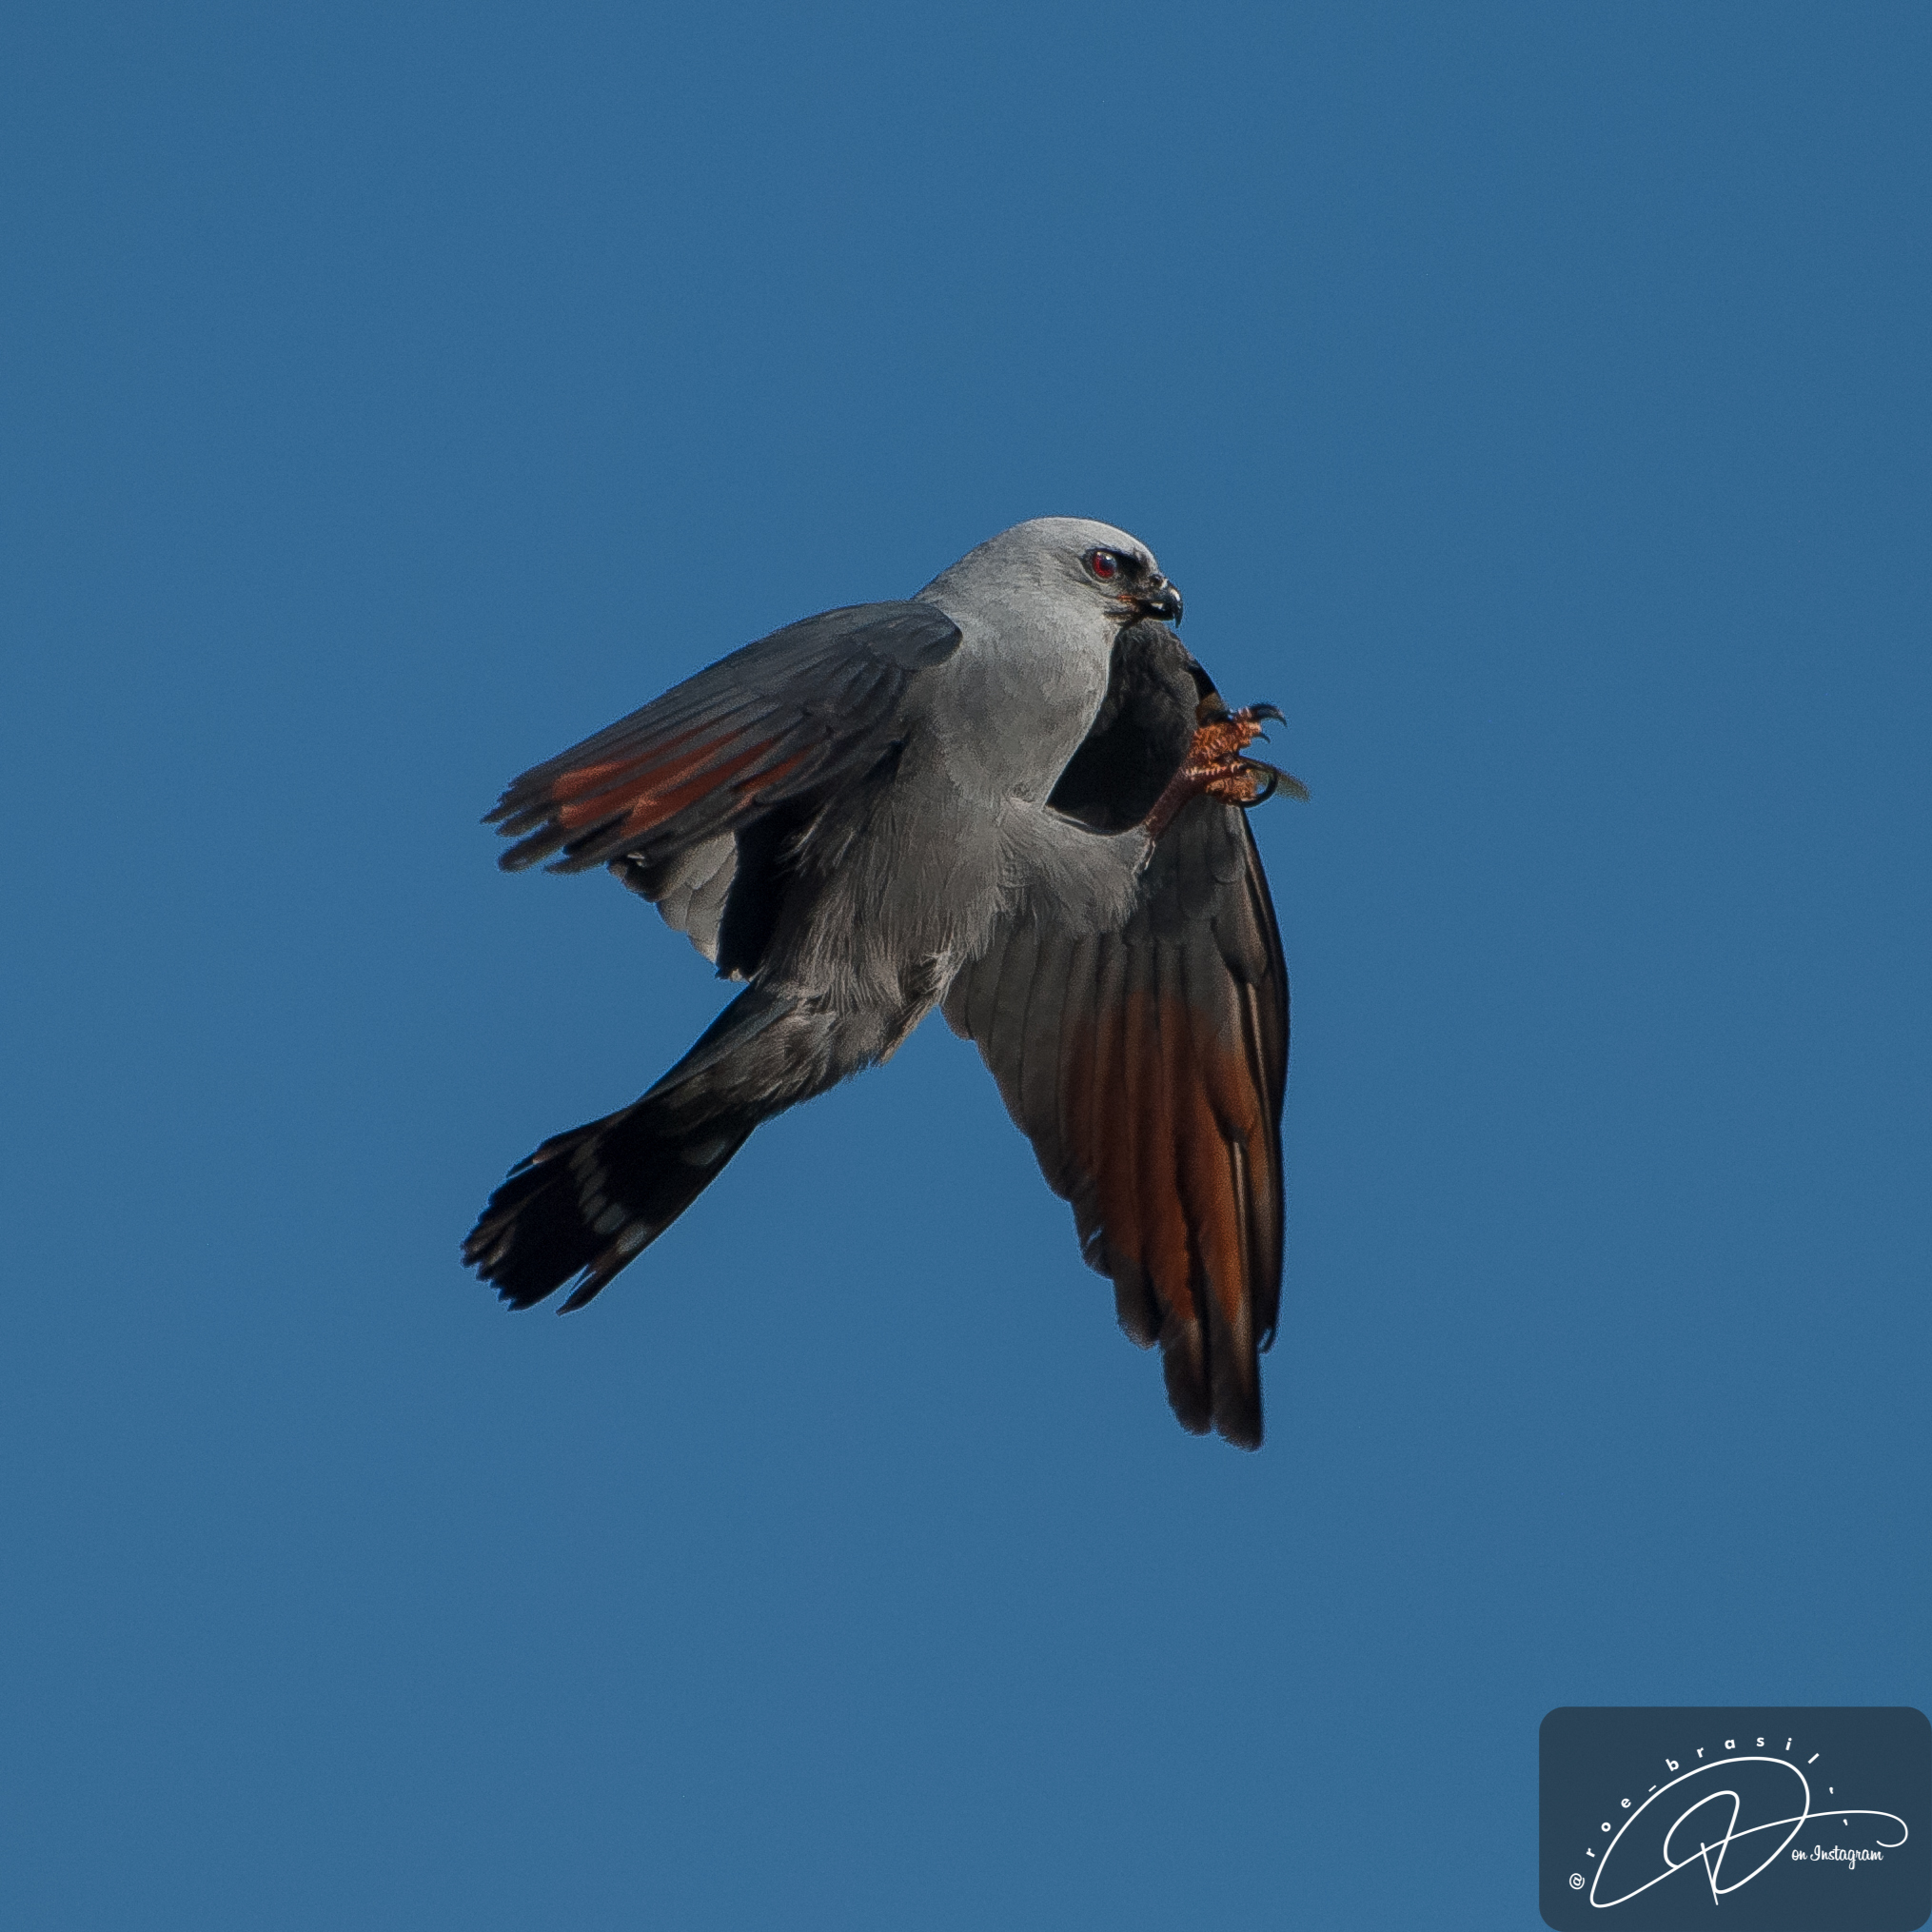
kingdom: Animalia
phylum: Chordata
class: Aves
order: Accipitriformes
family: Accipitridae
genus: Ictinia
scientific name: Ictinia plumbea
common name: Plumbeous kite
